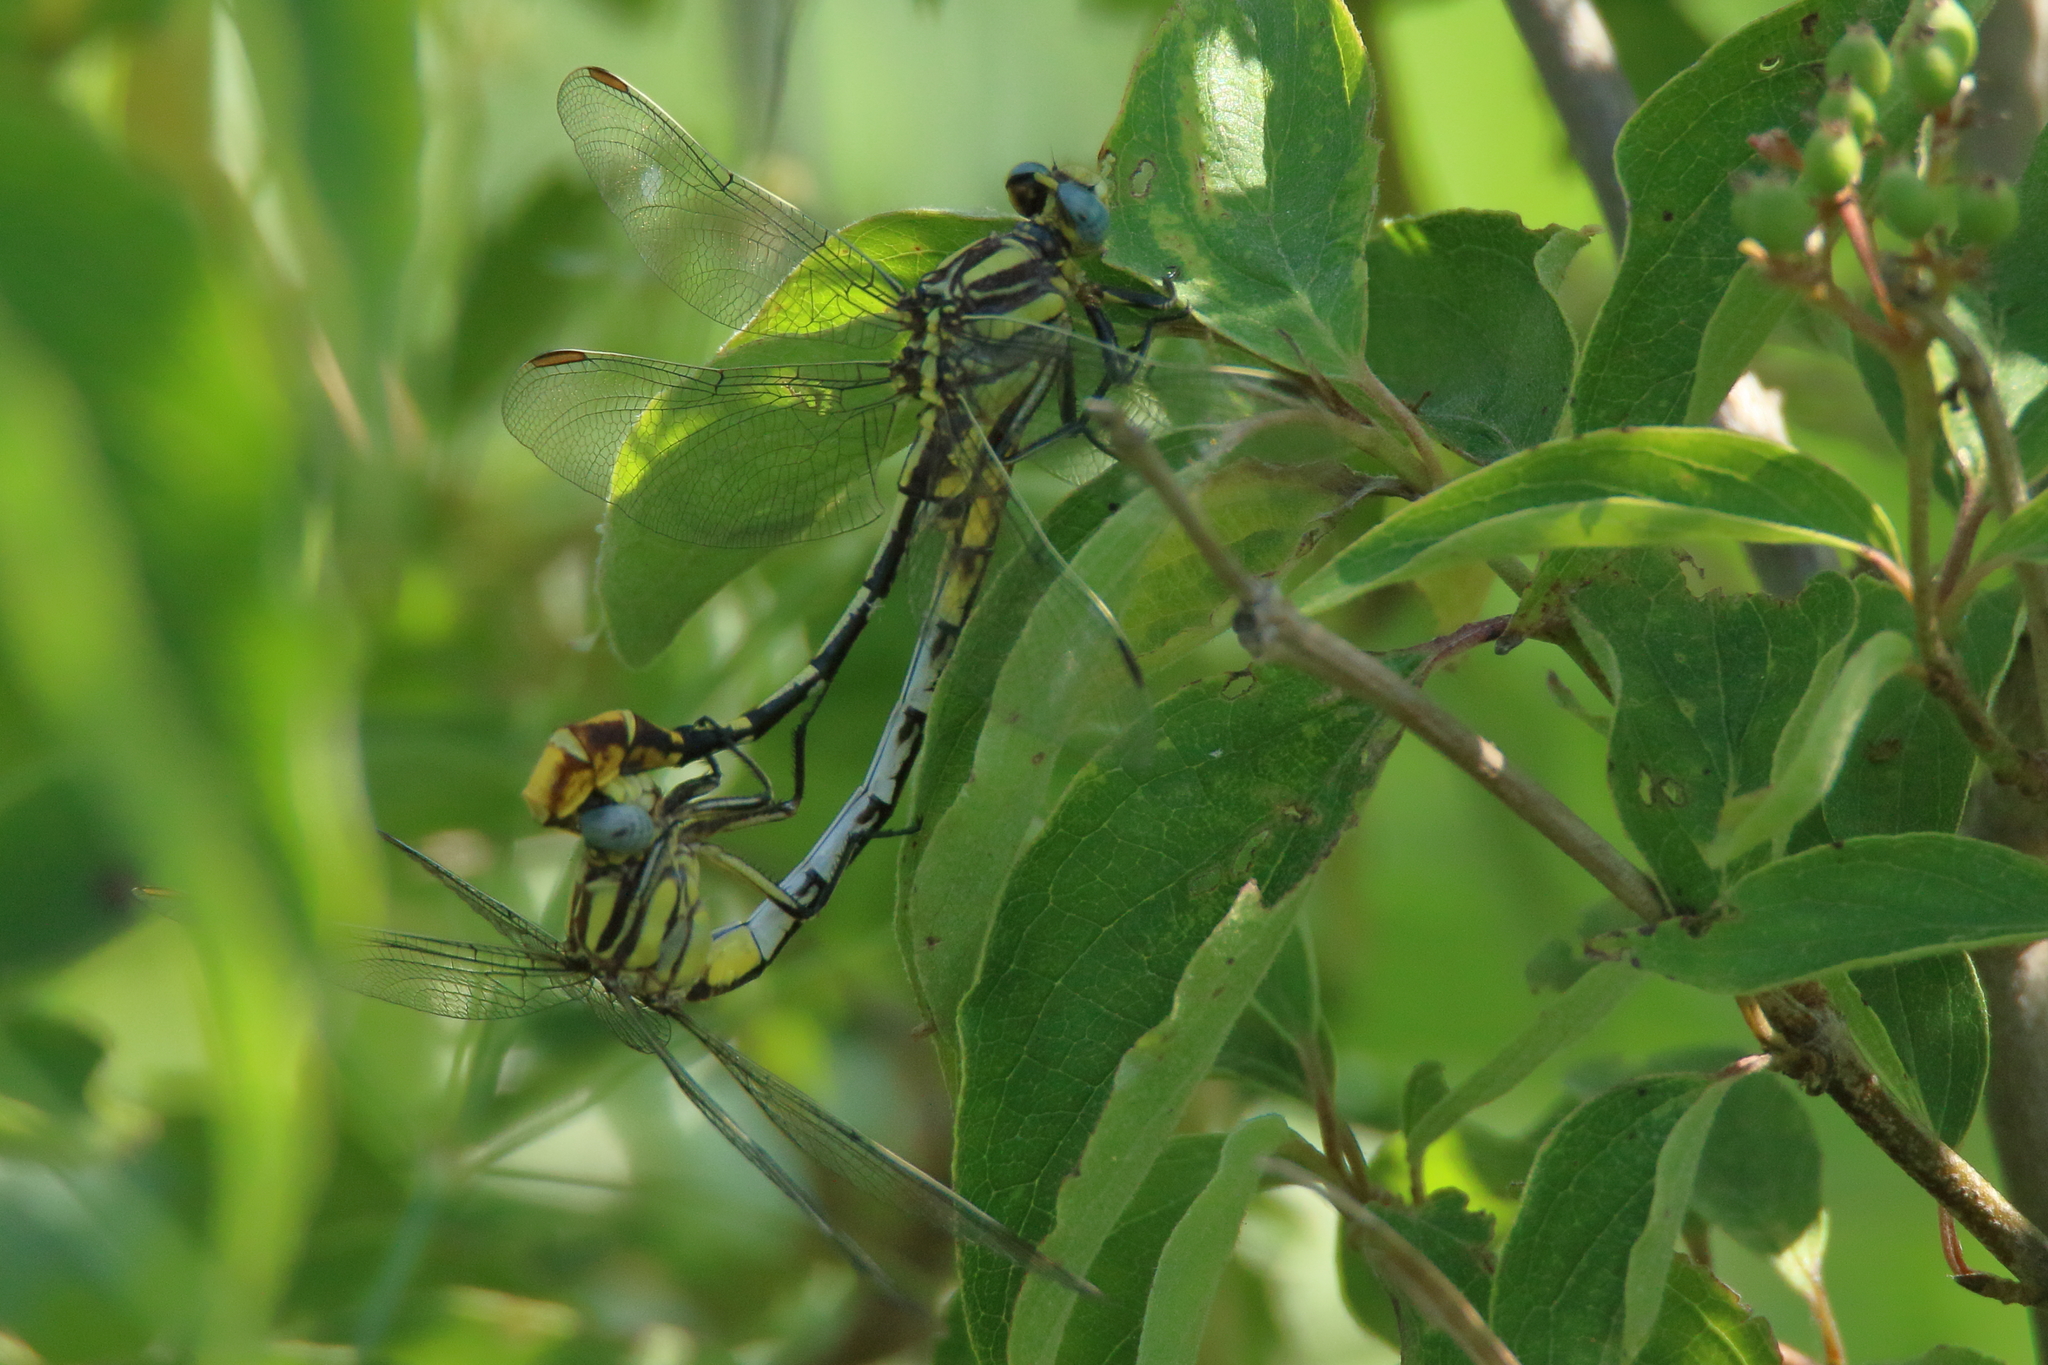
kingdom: Animalia
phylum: Arthropoda
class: Insecta
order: Odonata
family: Gomphidae
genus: Phanogomphus
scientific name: Phanogomphus militaris
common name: Sulphur-tipped clubtail
